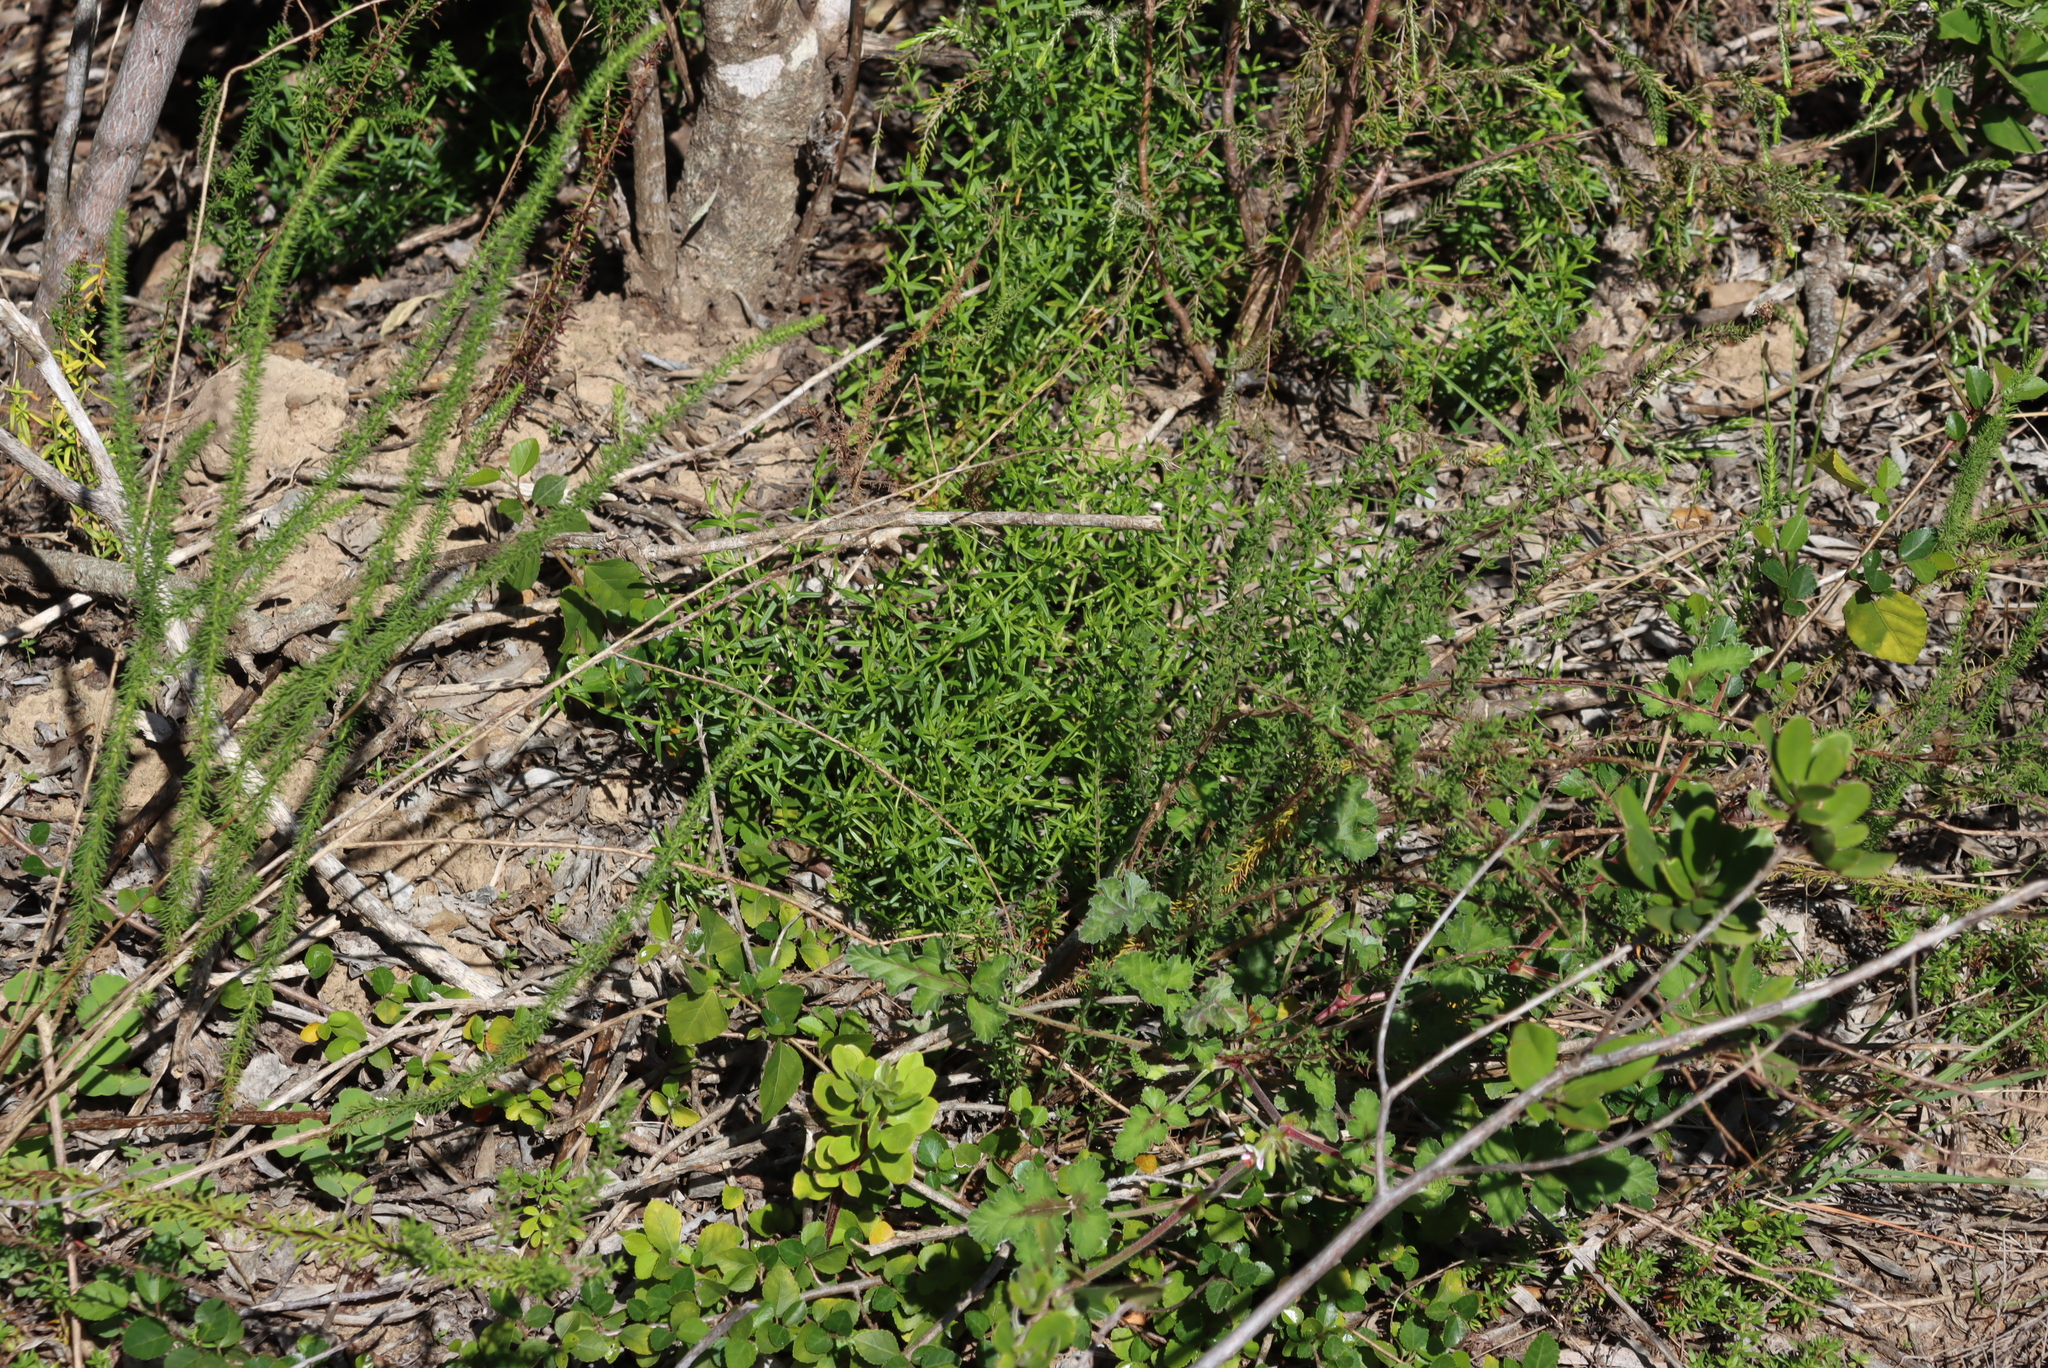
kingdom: Plantae
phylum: Tracheophyta
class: Magnoliopsida
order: Geraniales
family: Geraniaceae
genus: Pelargonium
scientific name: Pelargonium candicans
